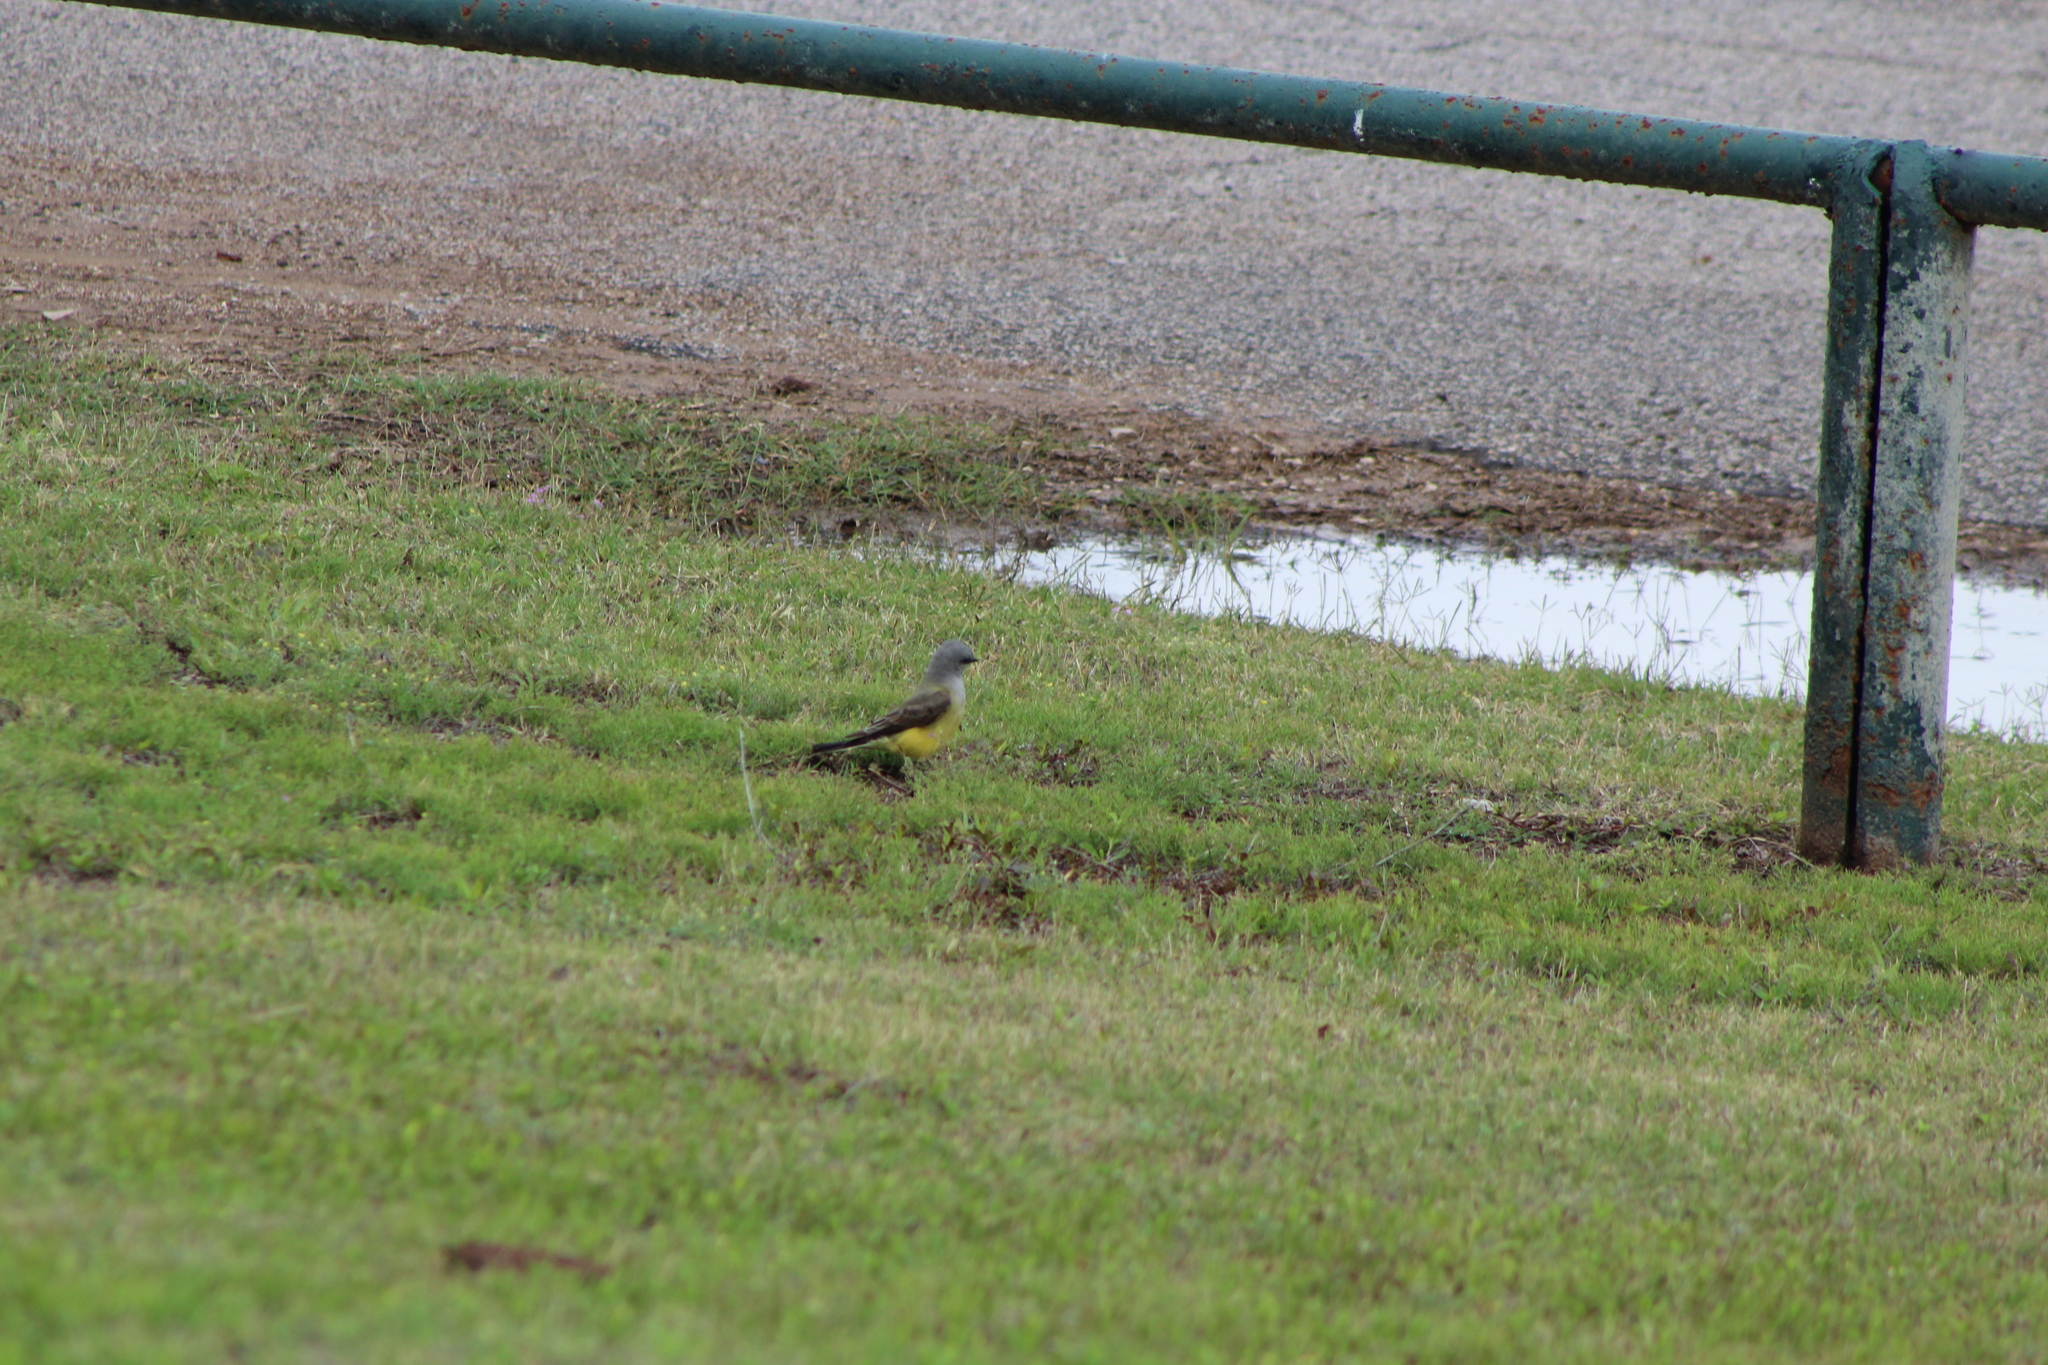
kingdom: Animalia
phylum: Chordata
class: Aves
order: Passeriformes
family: Tyrannidae
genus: Tyrannus
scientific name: Tyrannus verticalis
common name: Western kingbird
